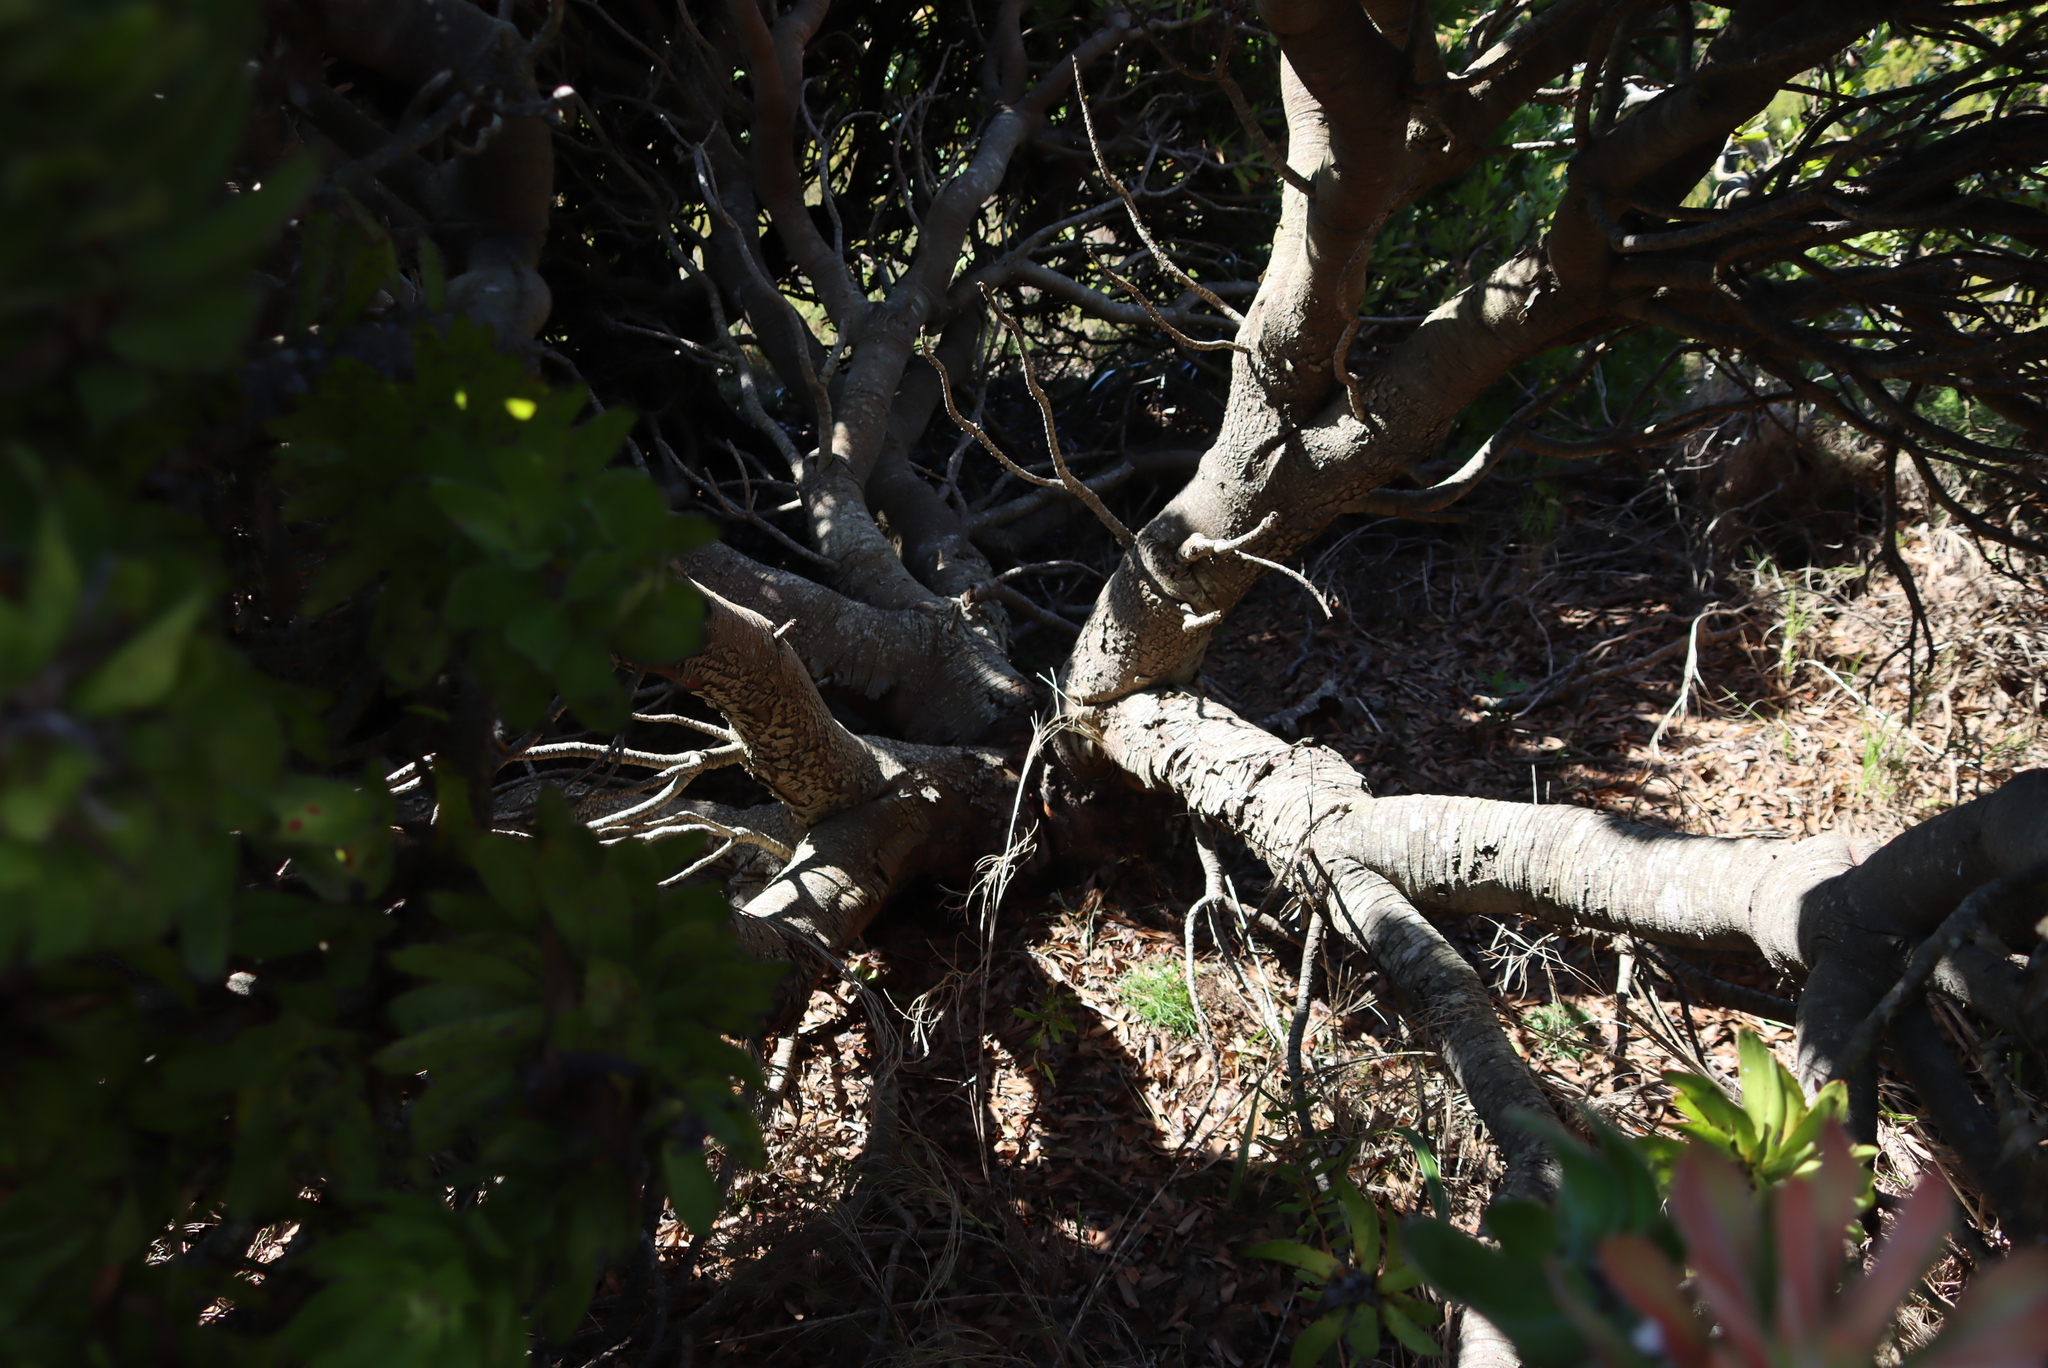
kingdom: Plantae
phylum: Tracheophyta
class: Magnoliopsida
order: Proteales
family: Proteaceae
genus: Mimetes
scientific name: Mimetes fimbriifolius
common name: Fringed bottlebrush
